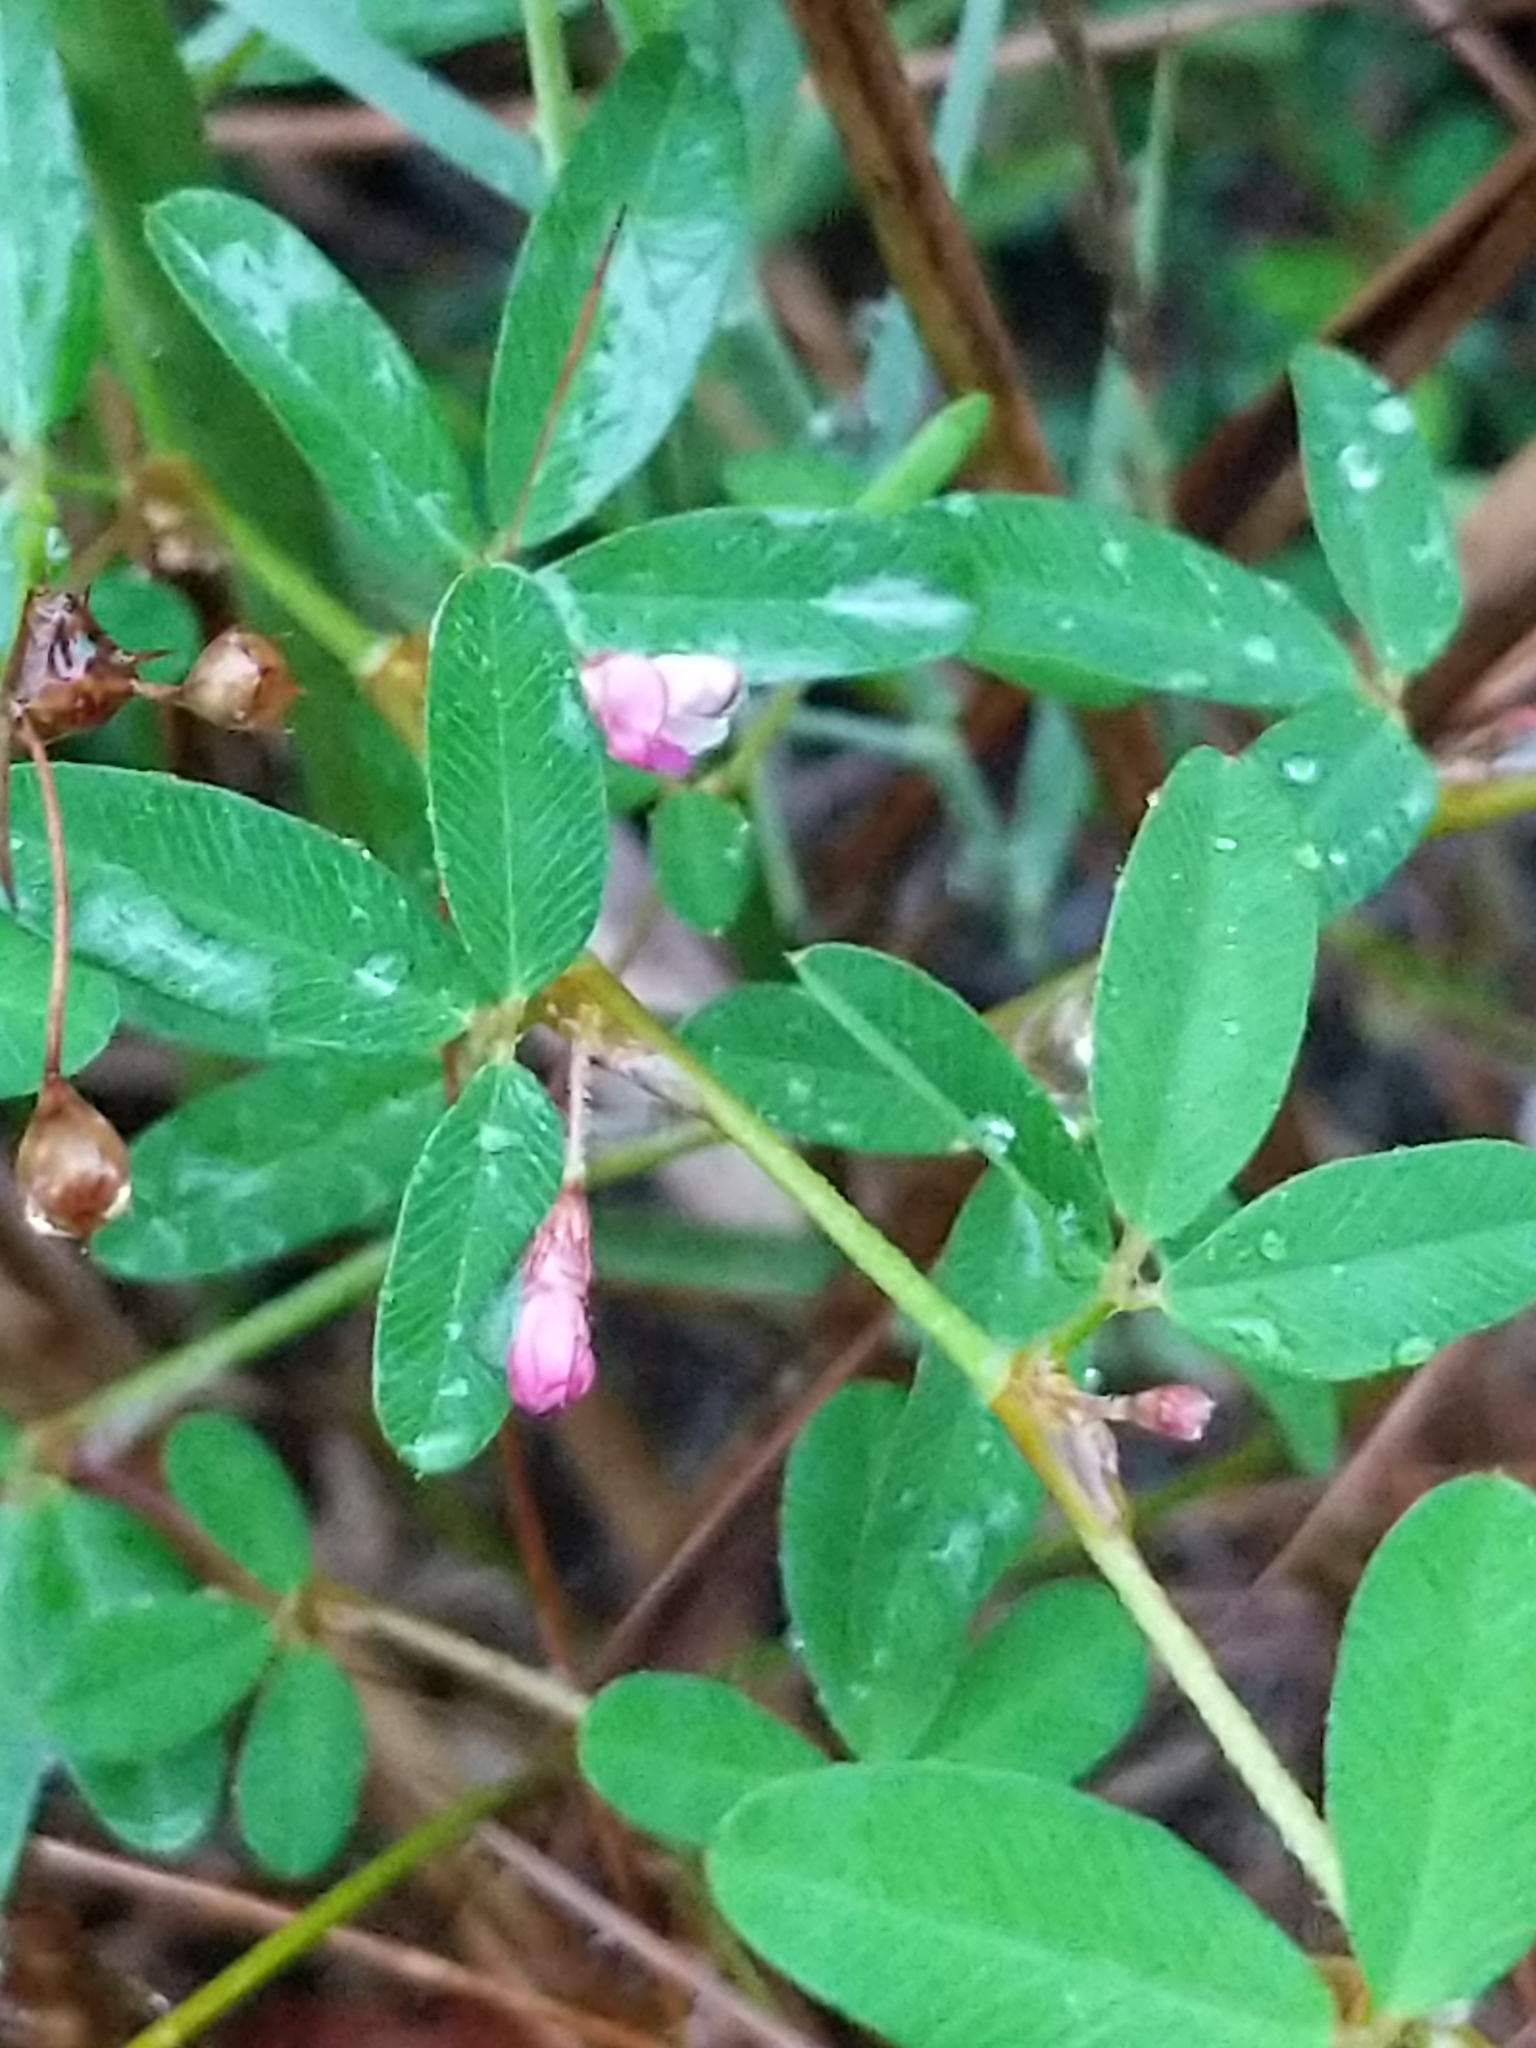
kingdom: Plantae
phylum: Tracheophyta
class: Magnoliopsida
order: Fabales
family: Fabaceae
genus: Kummerowia
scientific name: Kummerowia striata
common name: Japanese clover
